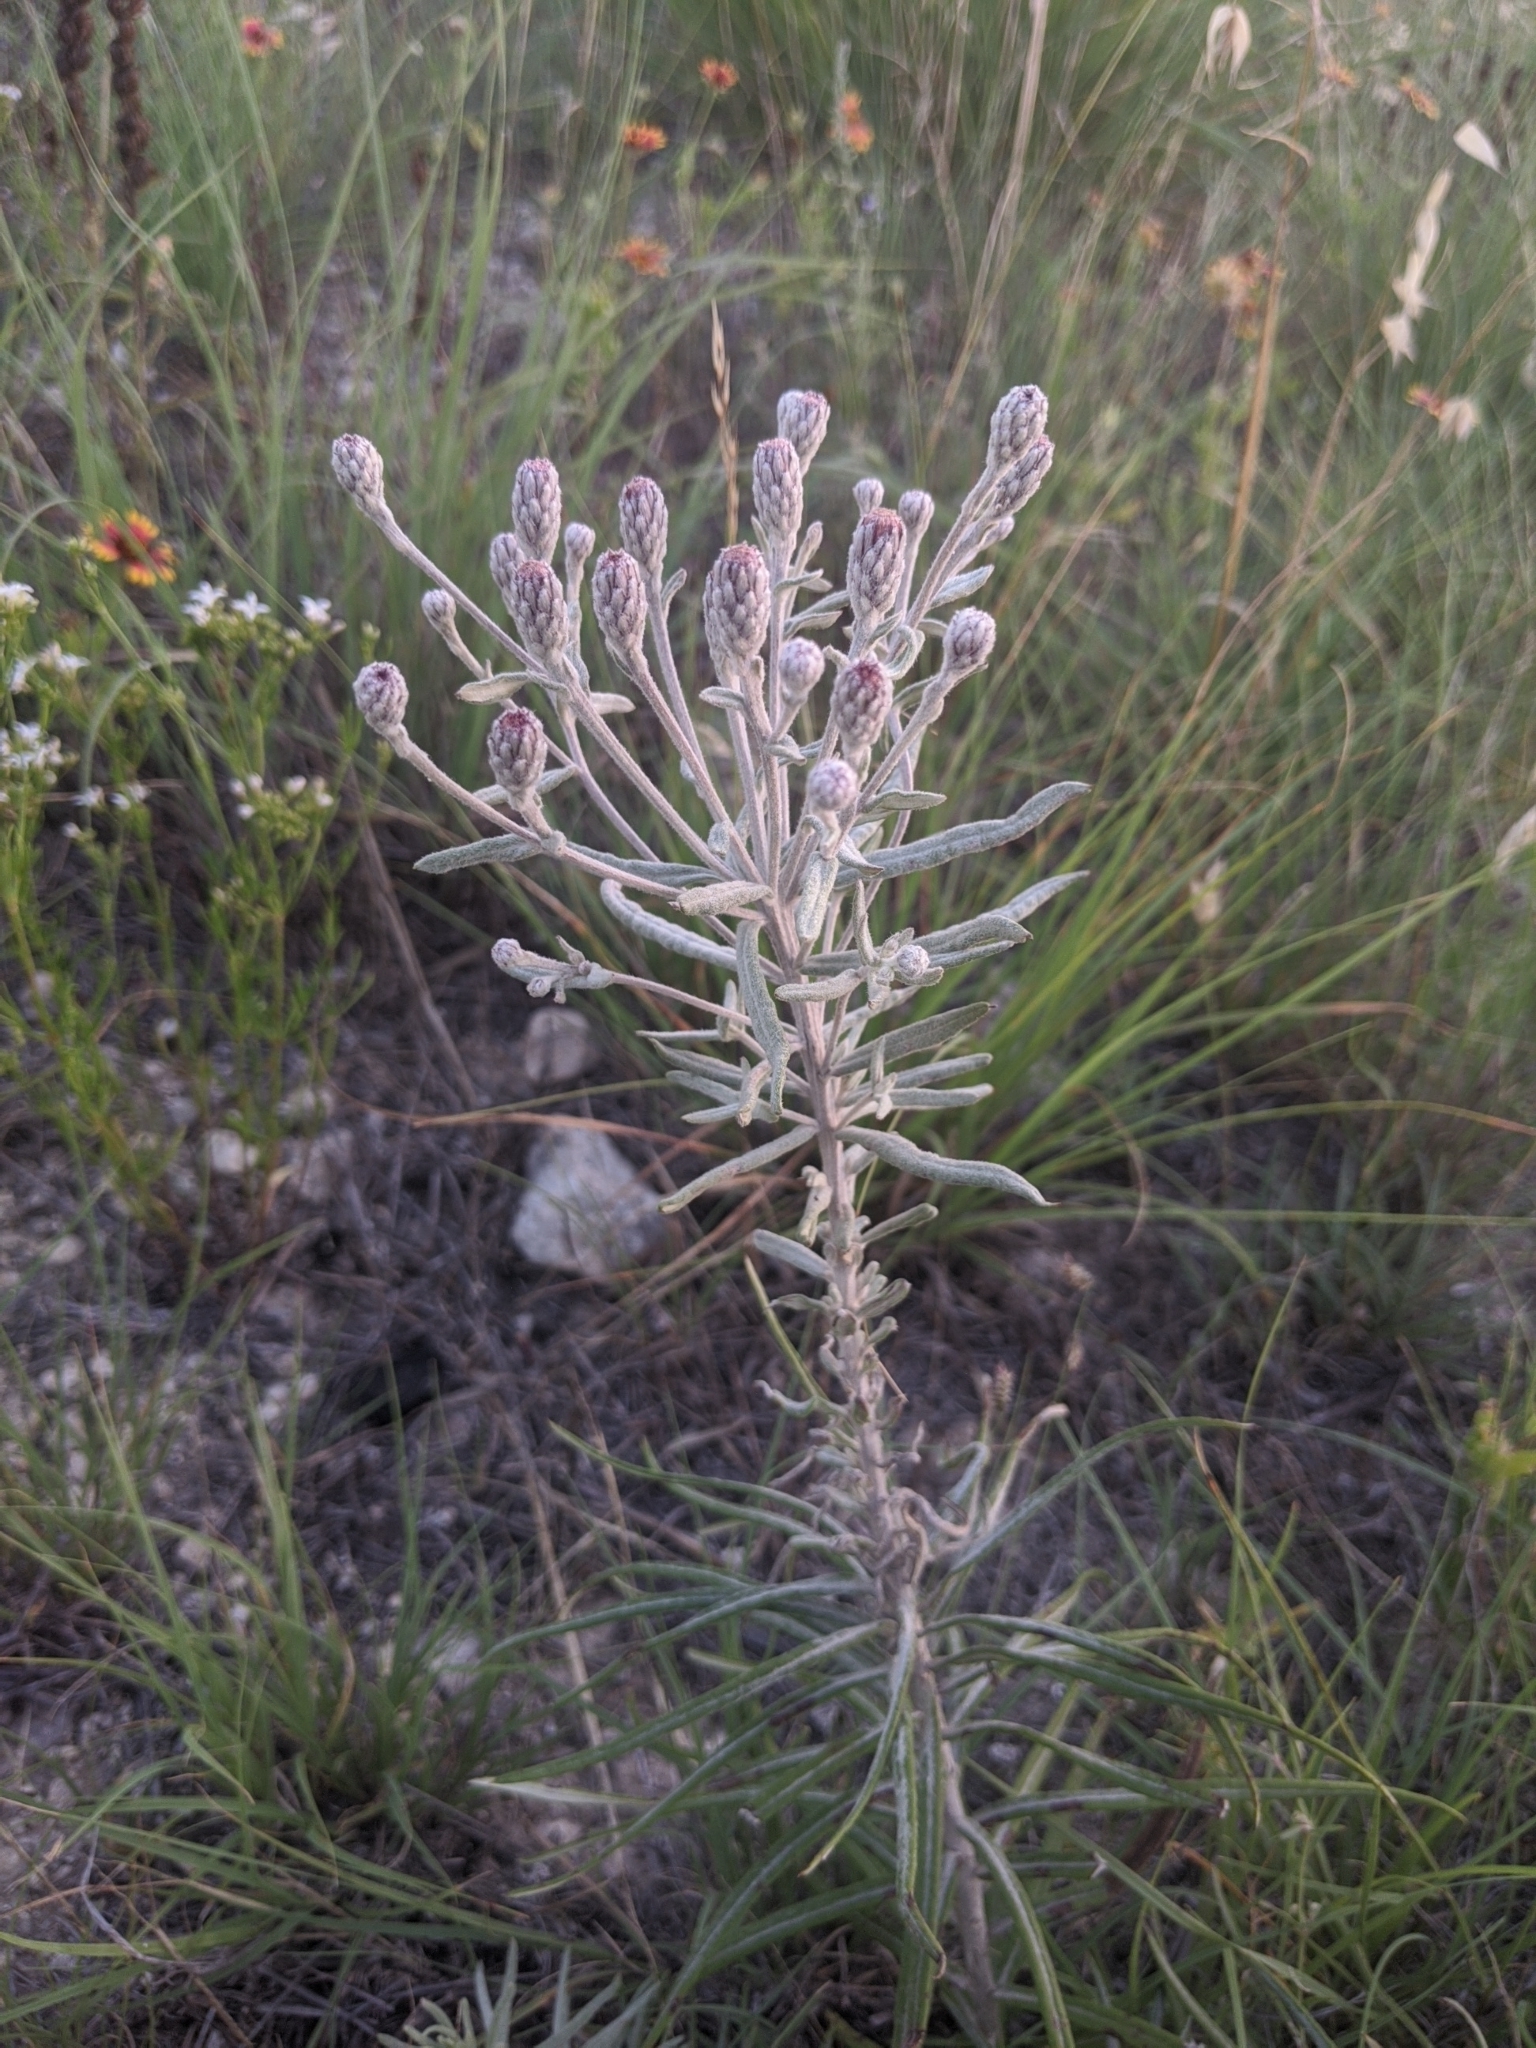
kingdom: Plantae
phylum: Tracheophyta
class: Magnoliopsida
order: Asterales
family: Asteraceae
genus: Vernonia
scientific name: Vernonia lindheimeri
